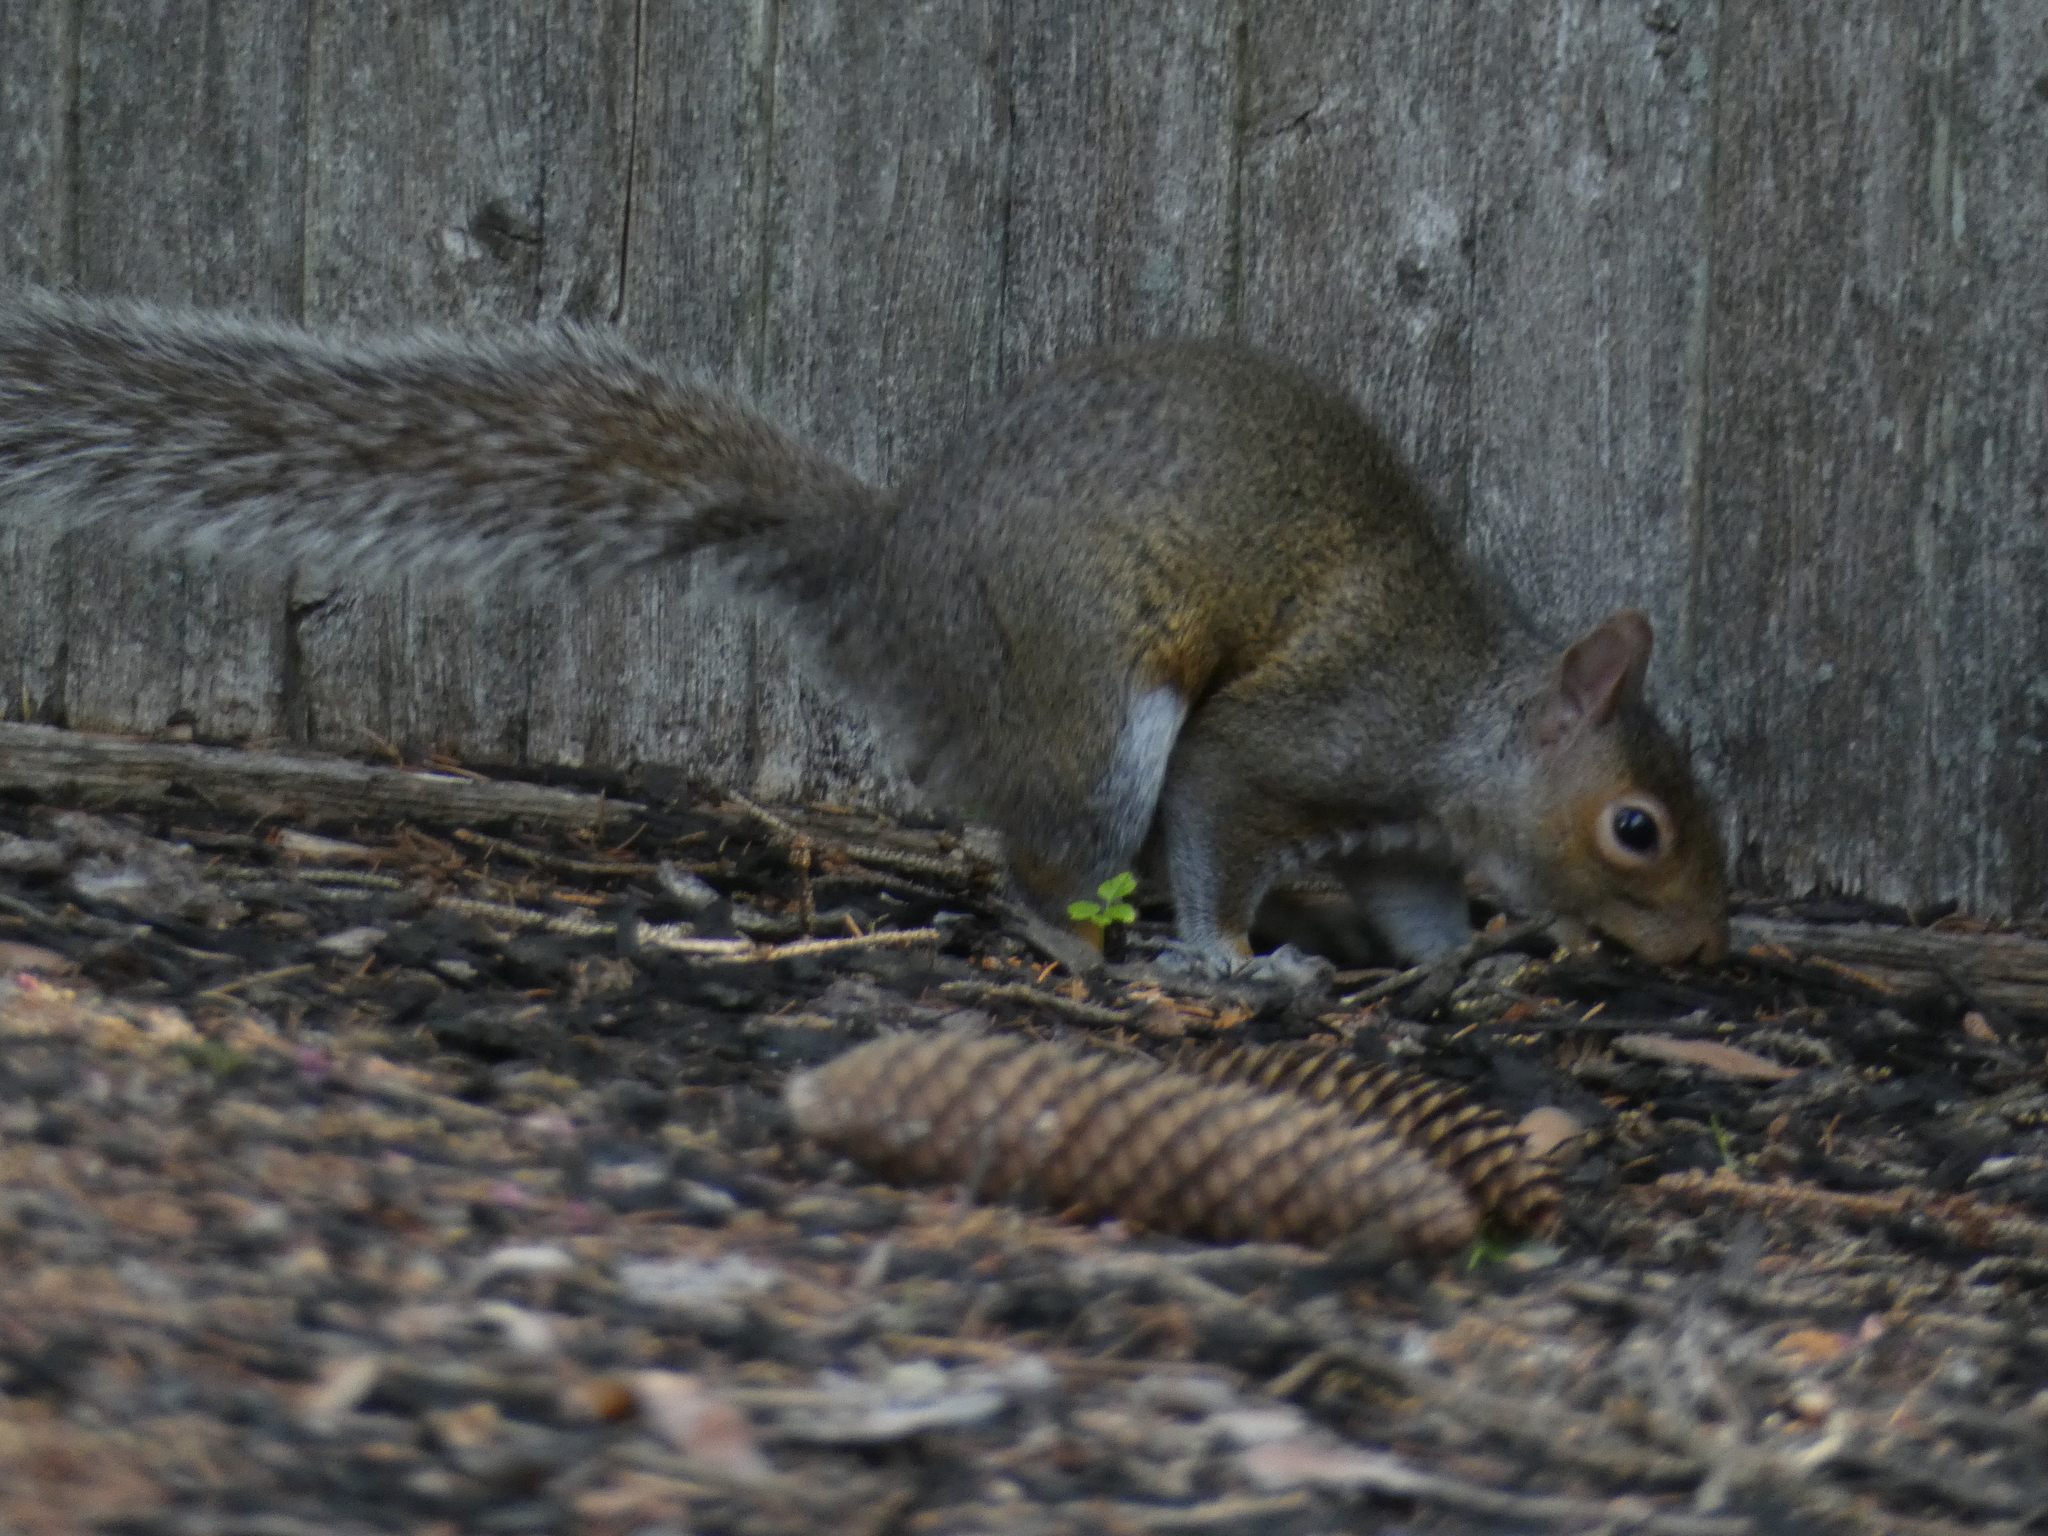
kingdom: Animalia
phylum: Chordata
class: Mammalia
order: Rodentia
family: Sciuridae
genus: Sciurus
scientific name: Sciurus carolinensis
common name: Eastern gray squirrel
